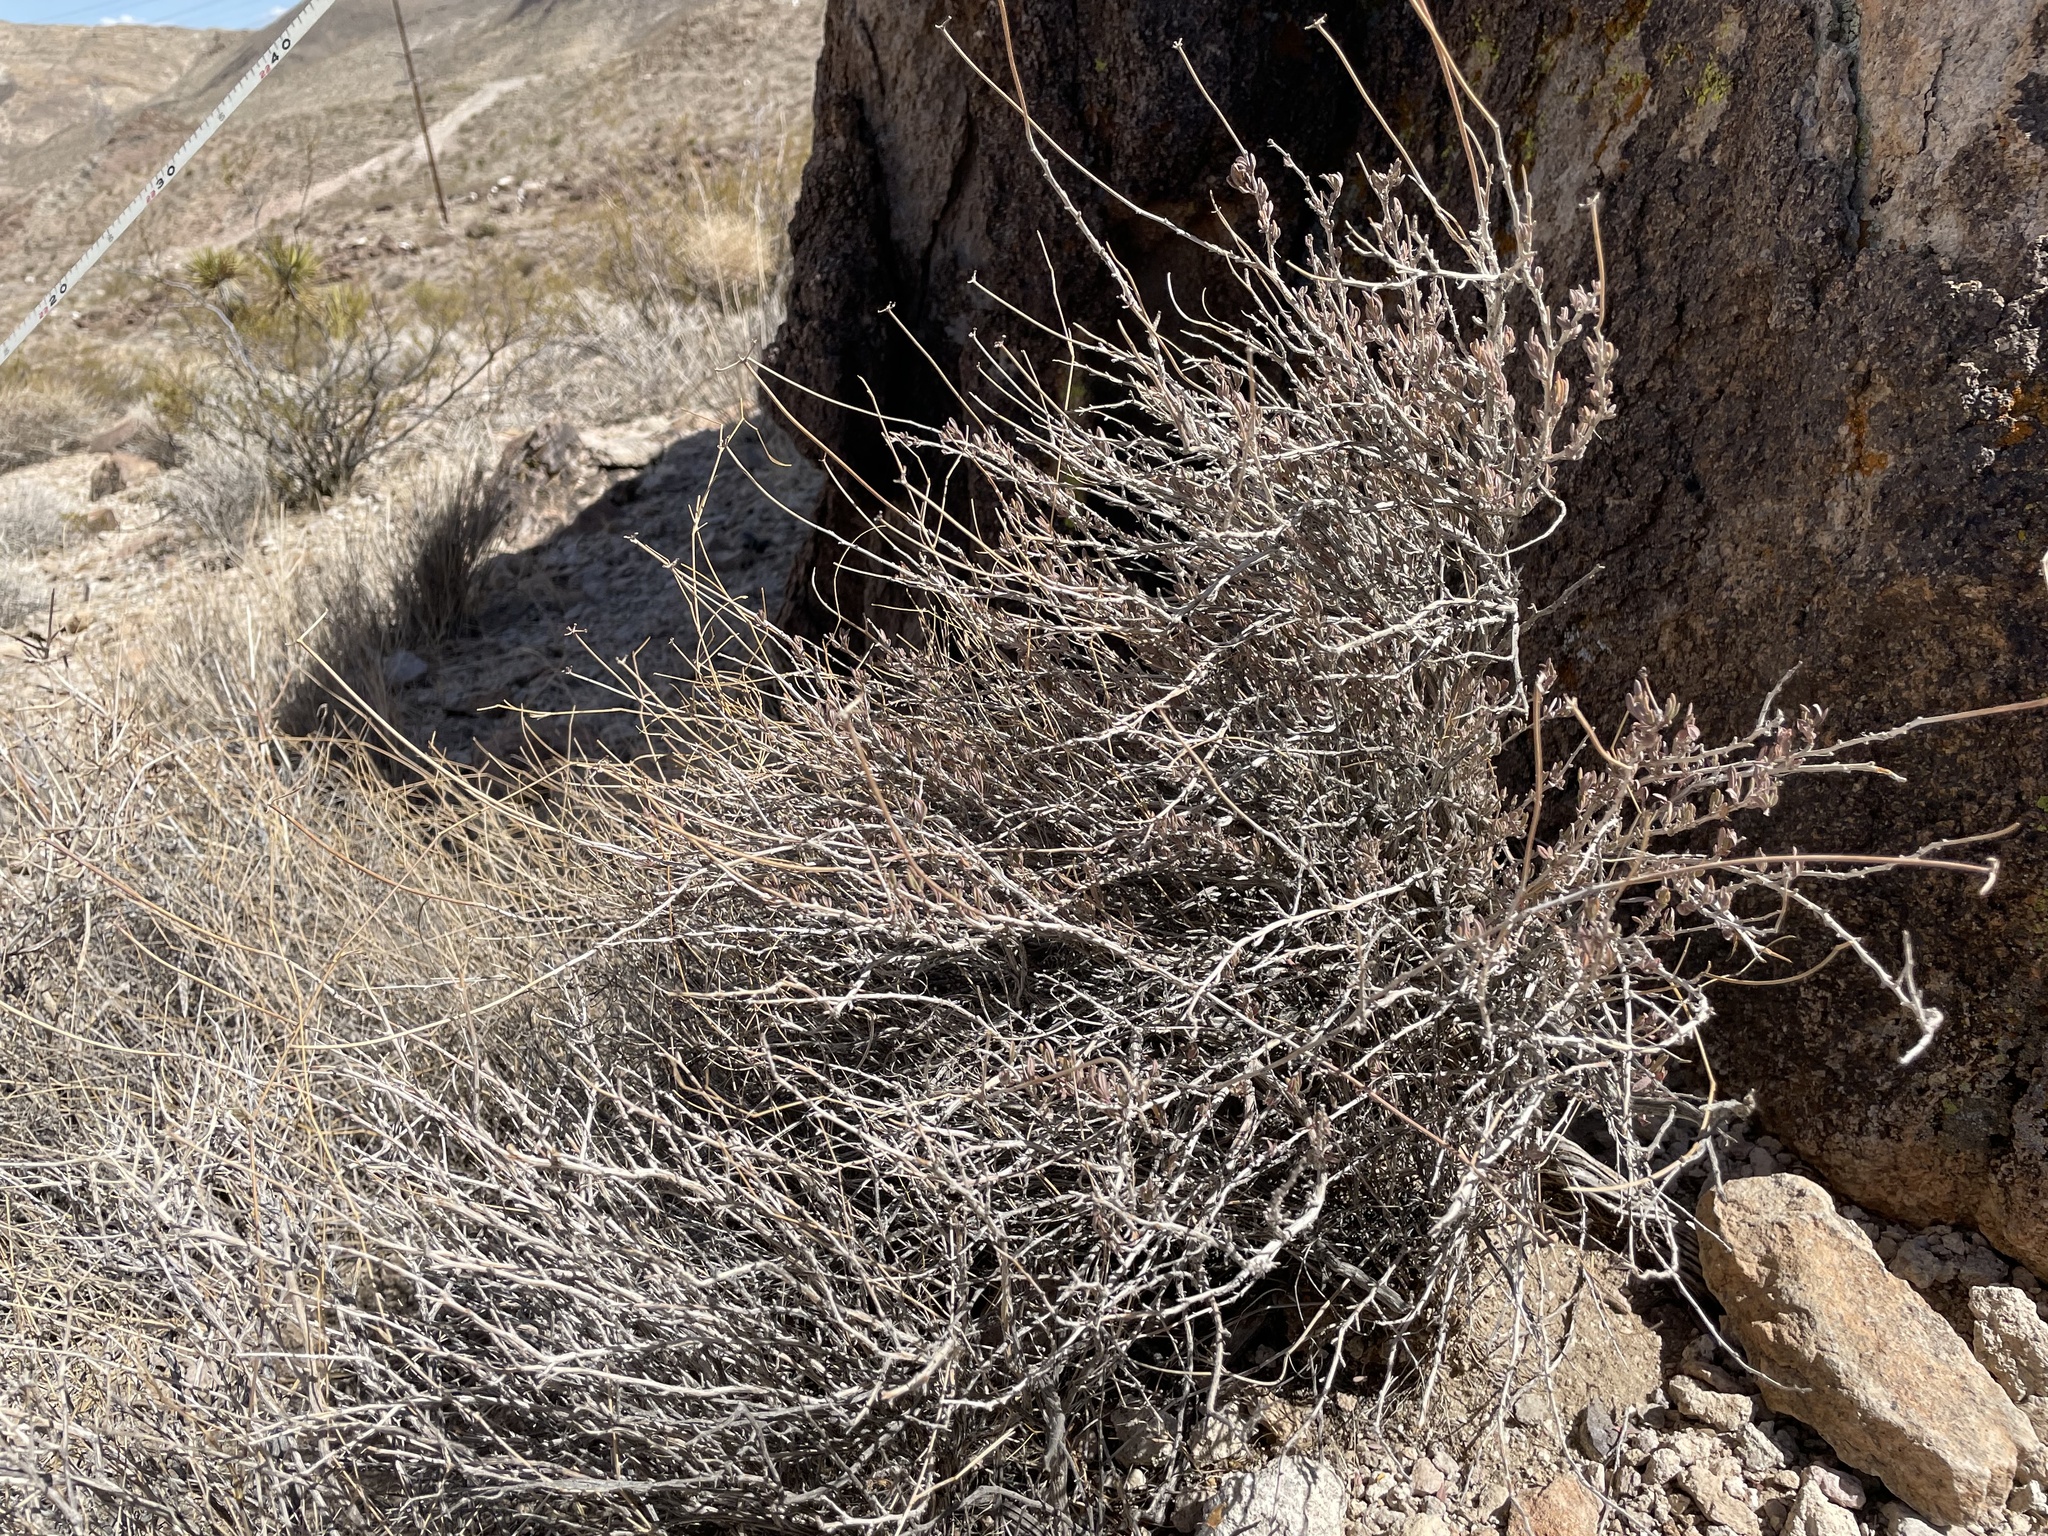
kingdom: Plantae
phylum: Tracheophyta
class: Magnoliopsida
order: Caryophyllales
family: Polygonaceae
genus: Eriogonum
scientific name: Eriogonum fasciculatum
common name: California wild buckwheat
